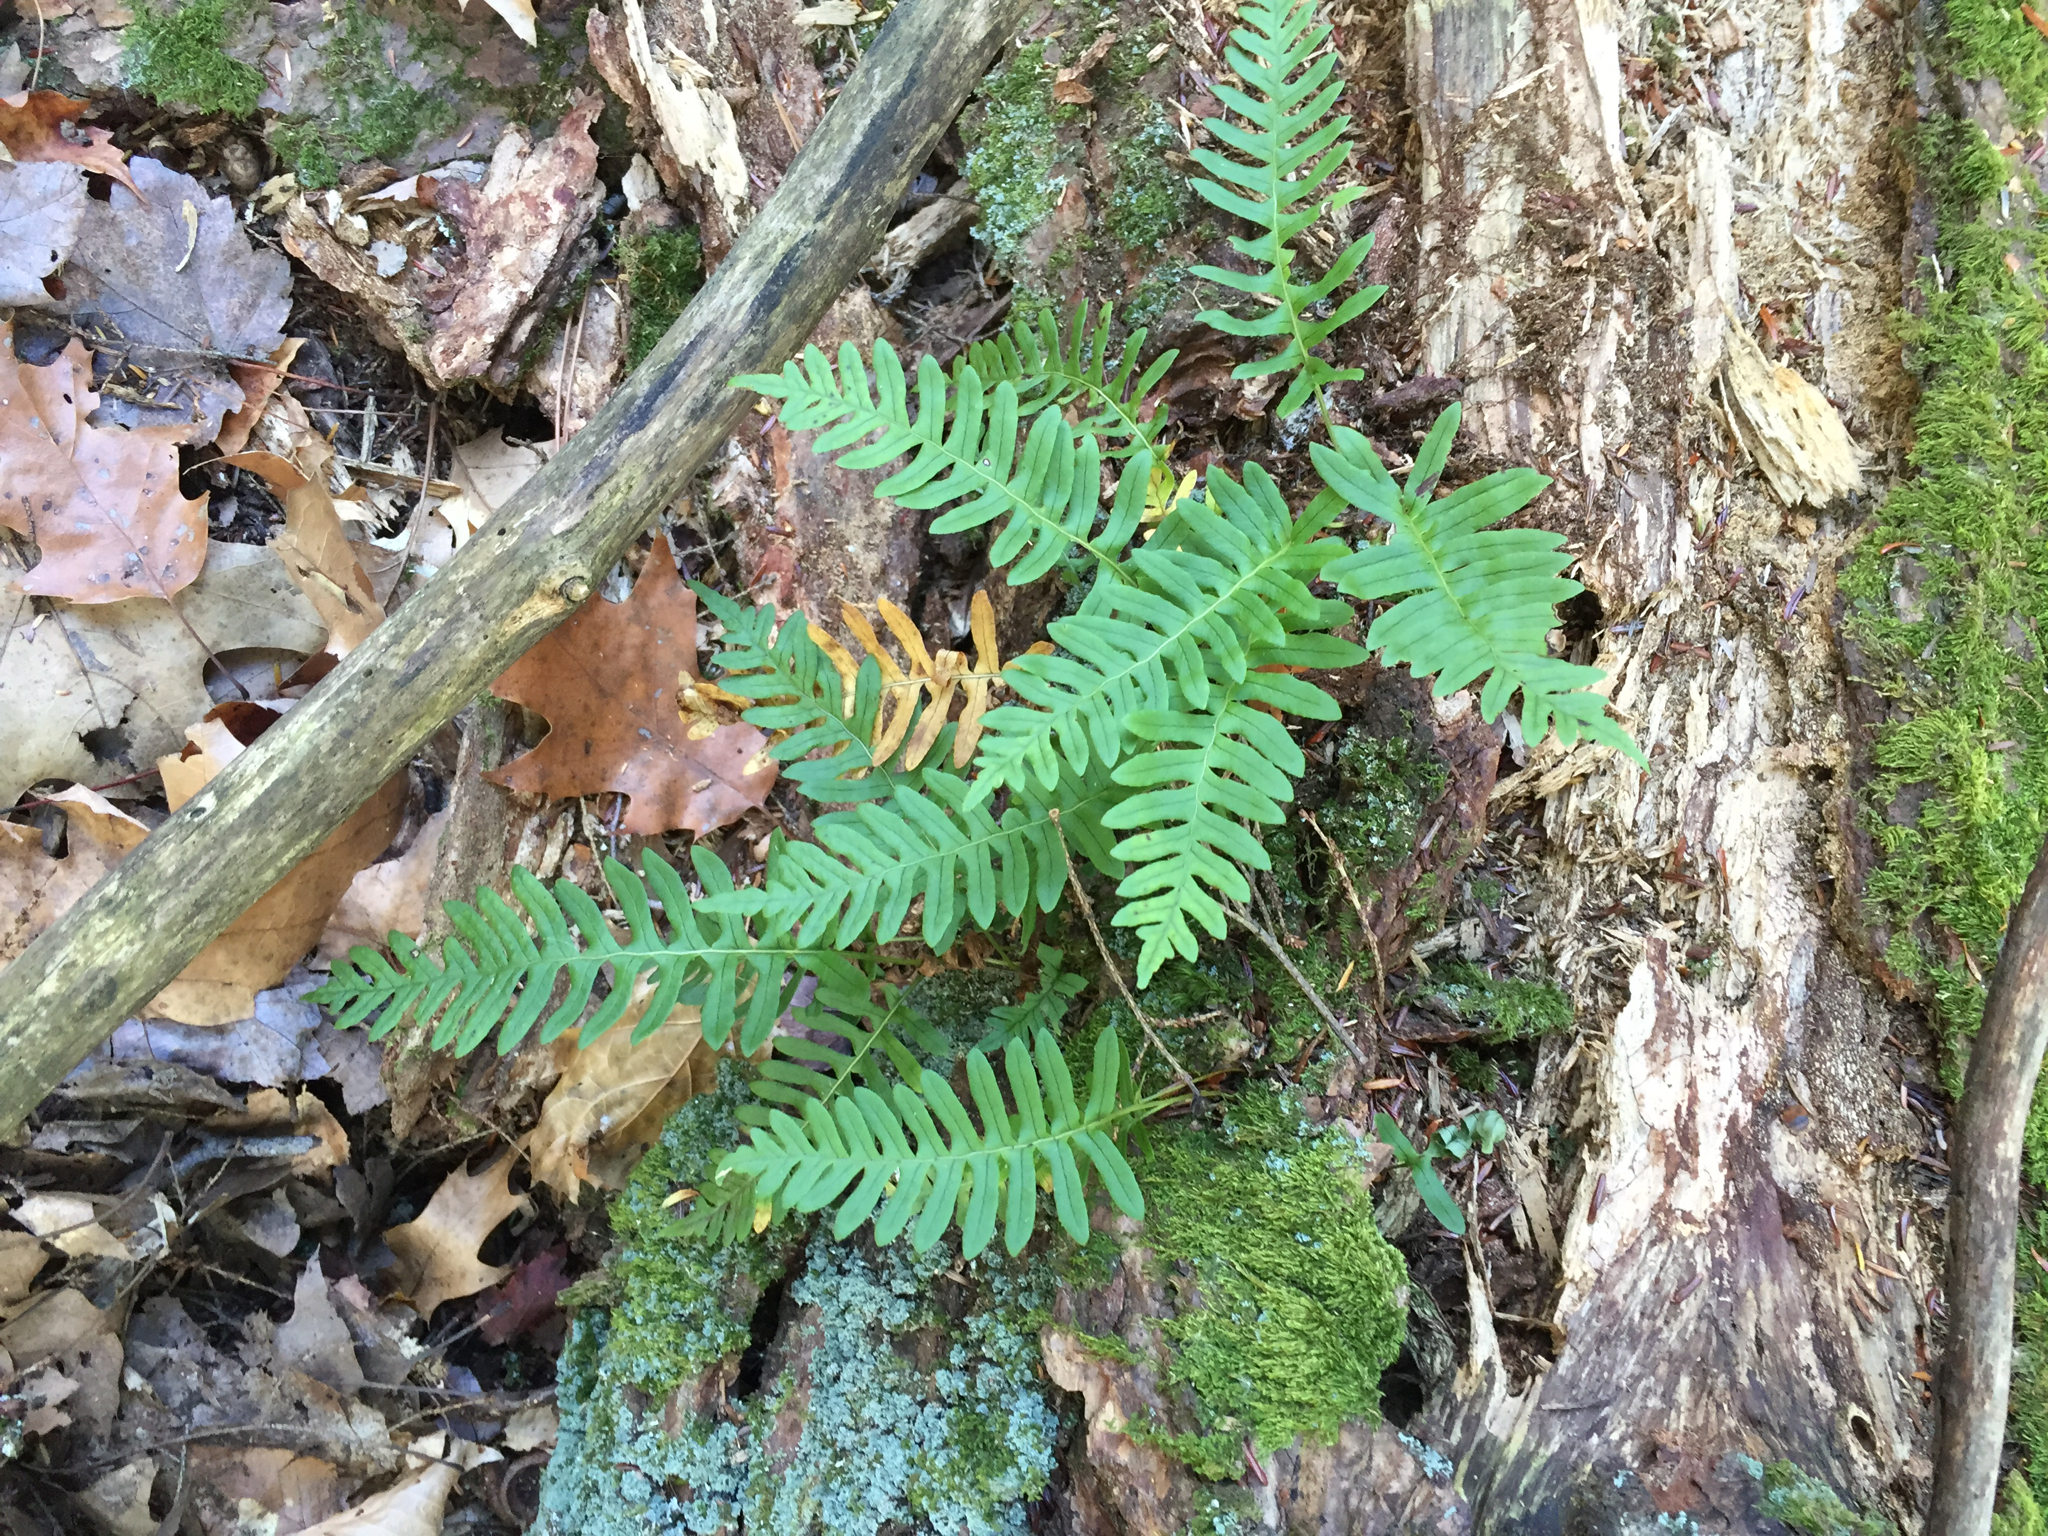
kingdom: Plantae
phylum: Tracheophyta
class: Polypodiopsida
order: Polypodiales
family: Polypodiaceae
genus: Polypodium
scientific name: Polypodium virginianum
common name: American wall fern
